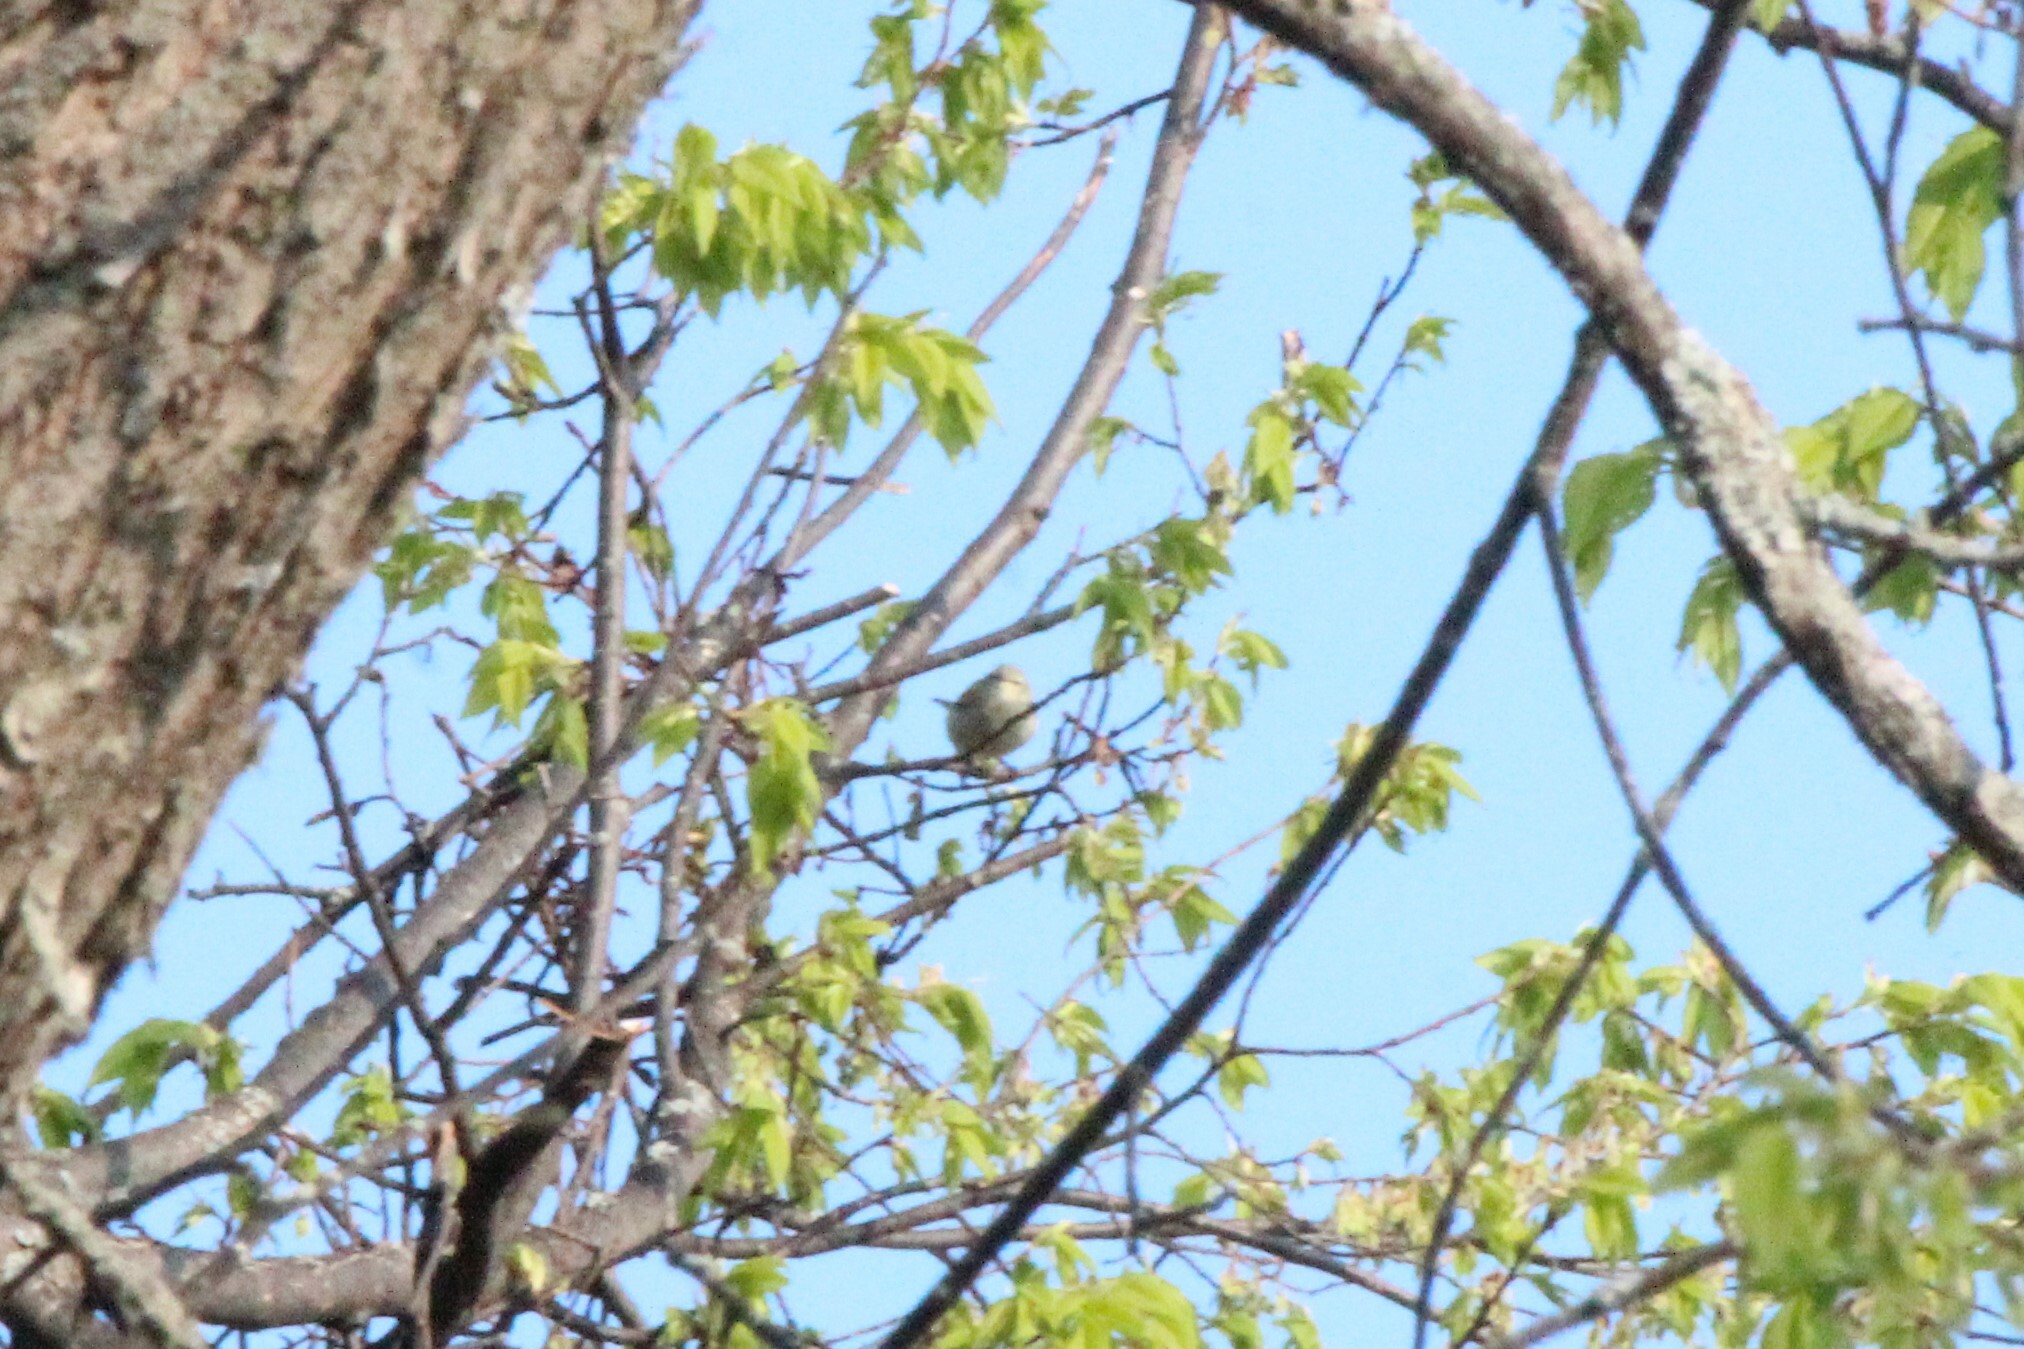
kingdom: Animalia
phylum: Chordata
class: Aves
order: Passeriformes
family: Parulidae
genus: Leiothlypis
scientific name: Leiothlypis peregrina
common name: Tennessee warbler
